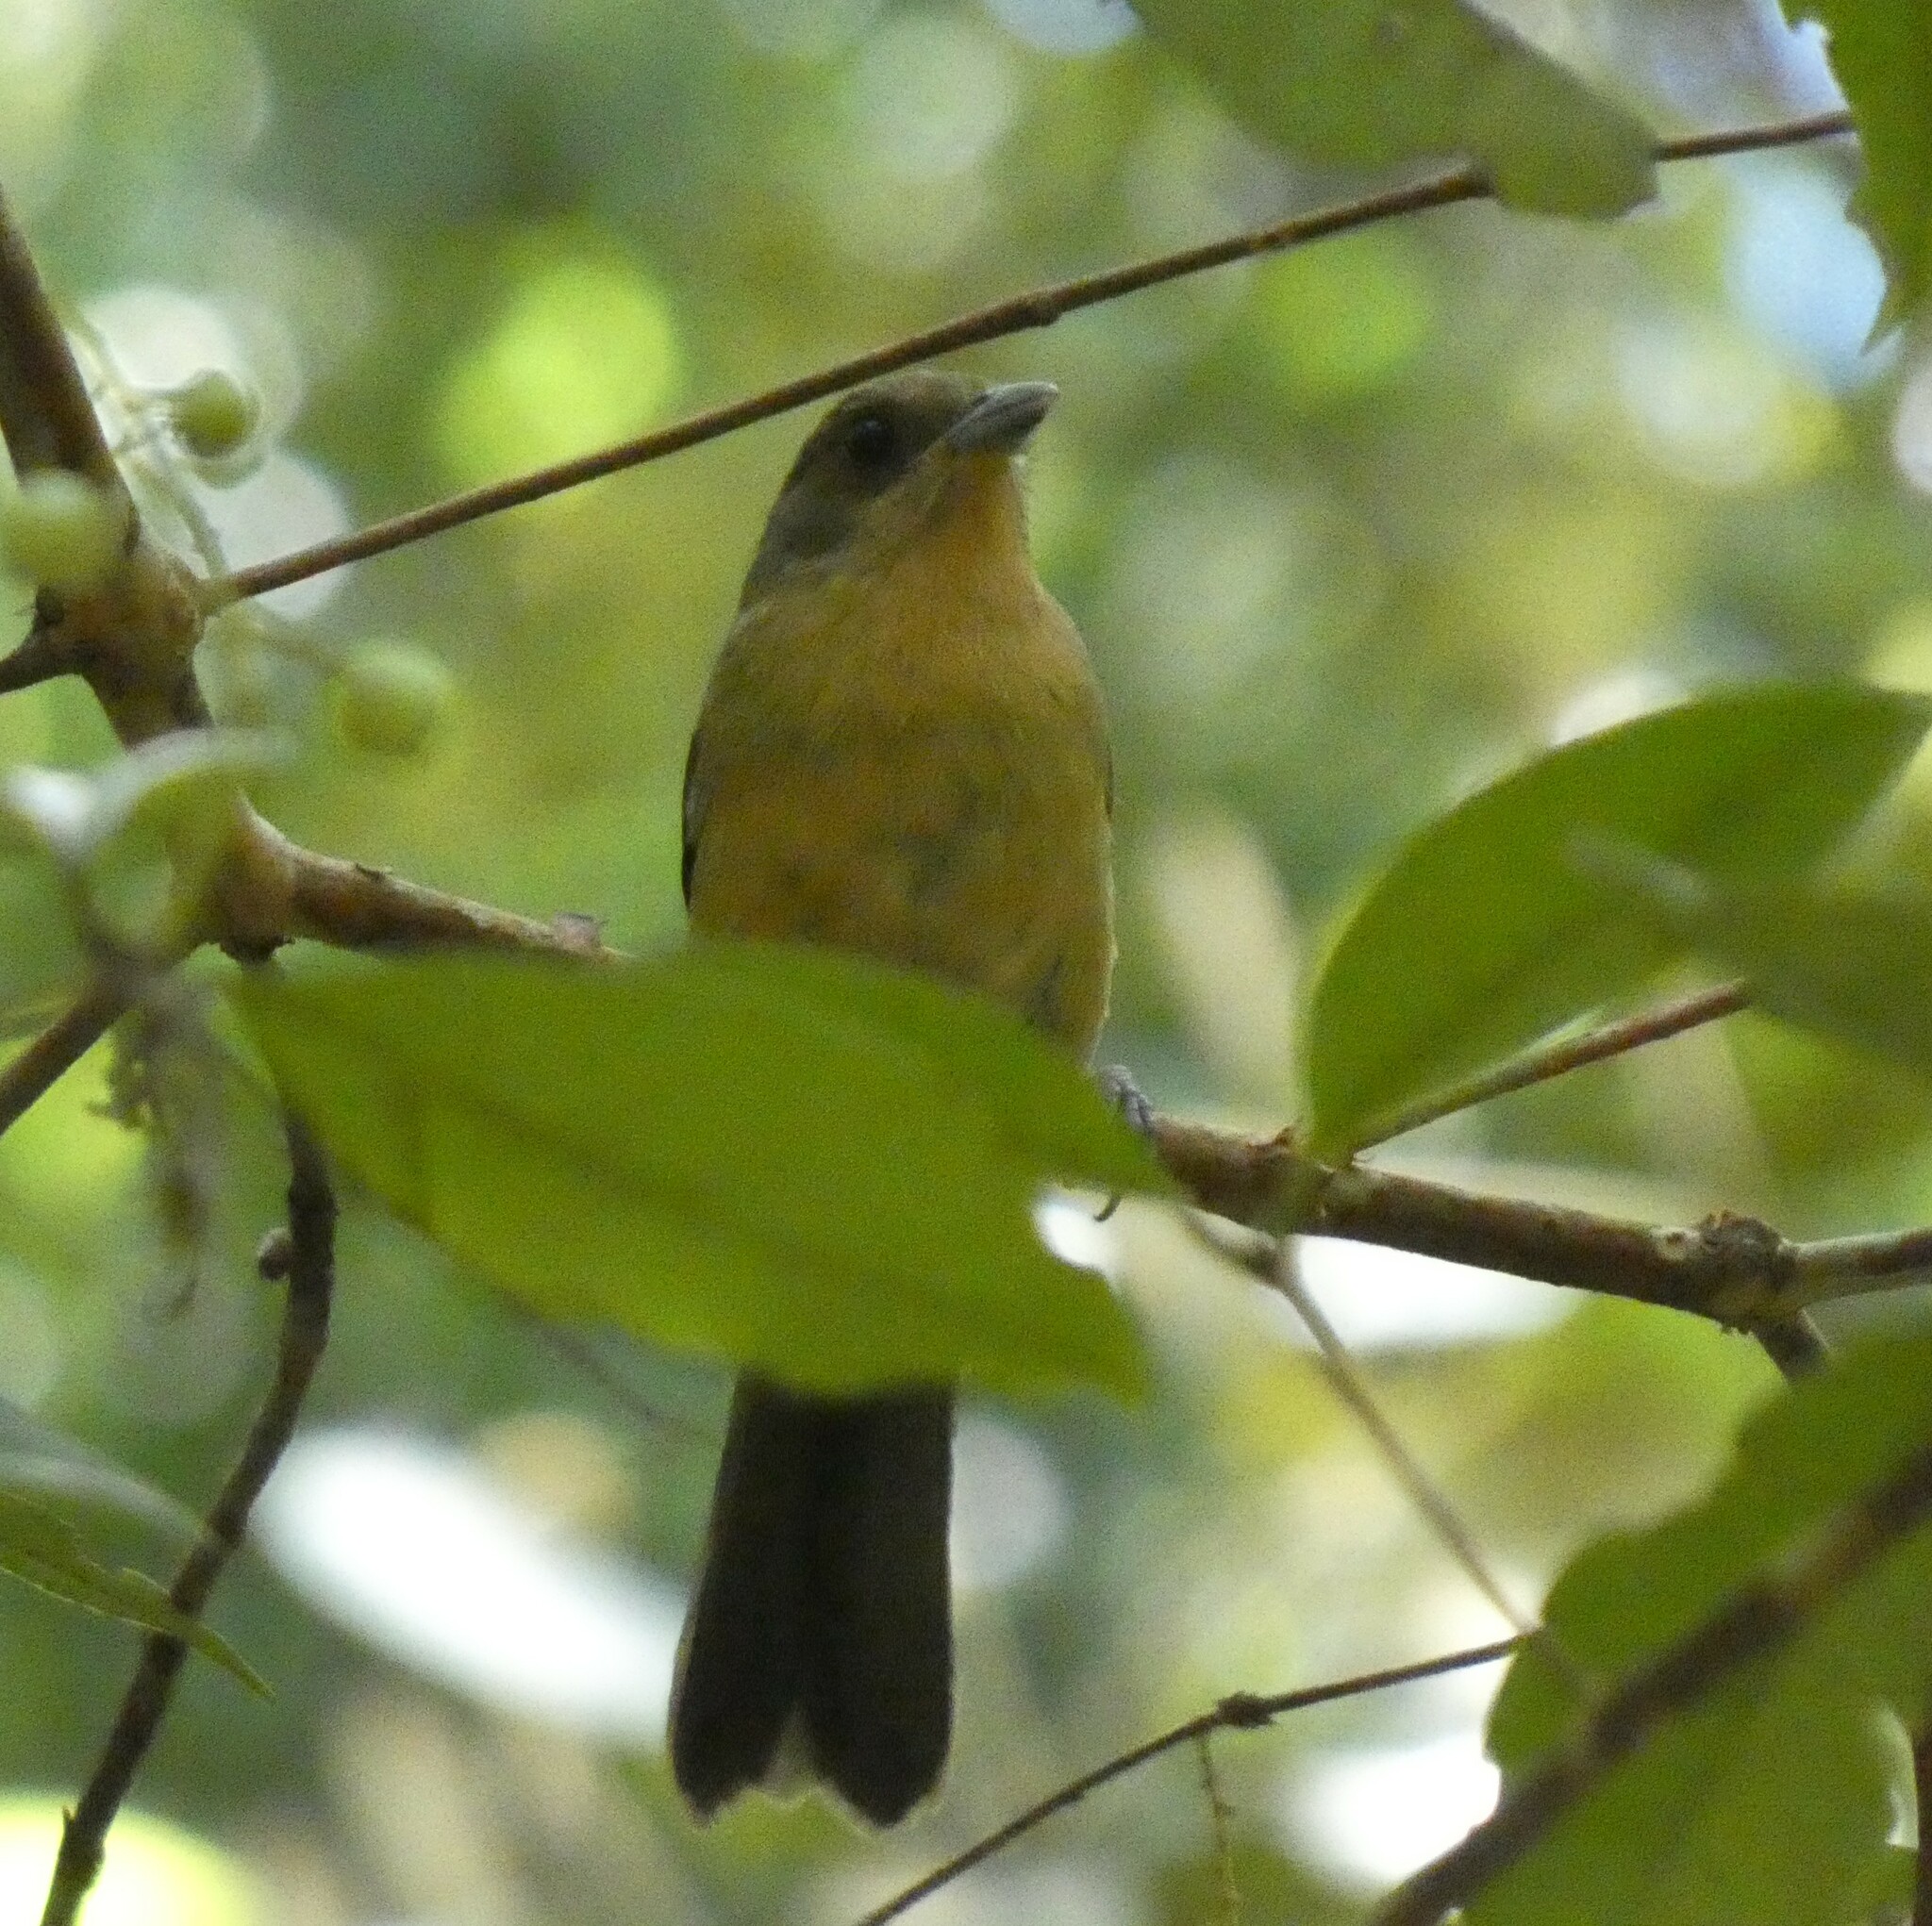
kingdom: Animalia
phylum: Chordata
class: Aves
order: Passeriformes
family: Thraupidae
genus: Trichothraupis
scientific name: Trichothraupis melanops
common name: Black-goggled tanager
